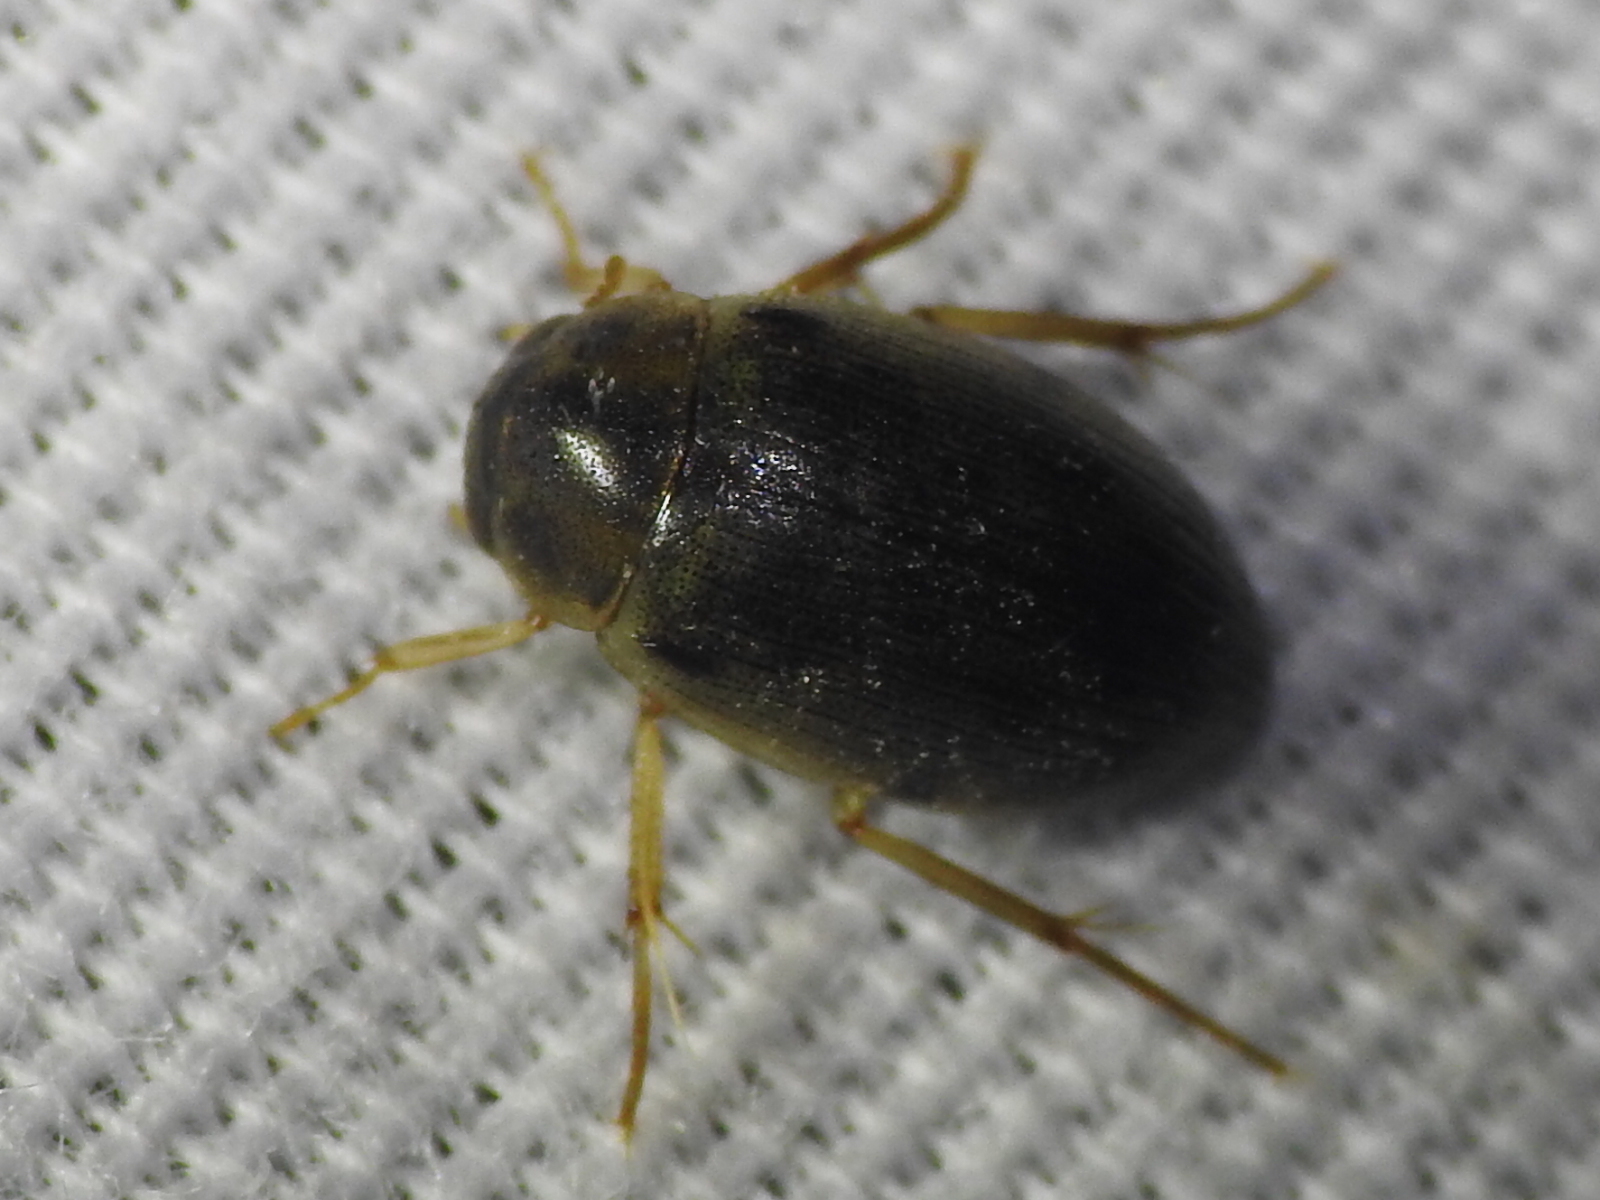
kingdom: Animalia
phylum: Arthropoda
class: Insecta
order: Coleoptera
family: Hydrophilidae
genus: Berosus
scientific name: Berosus
